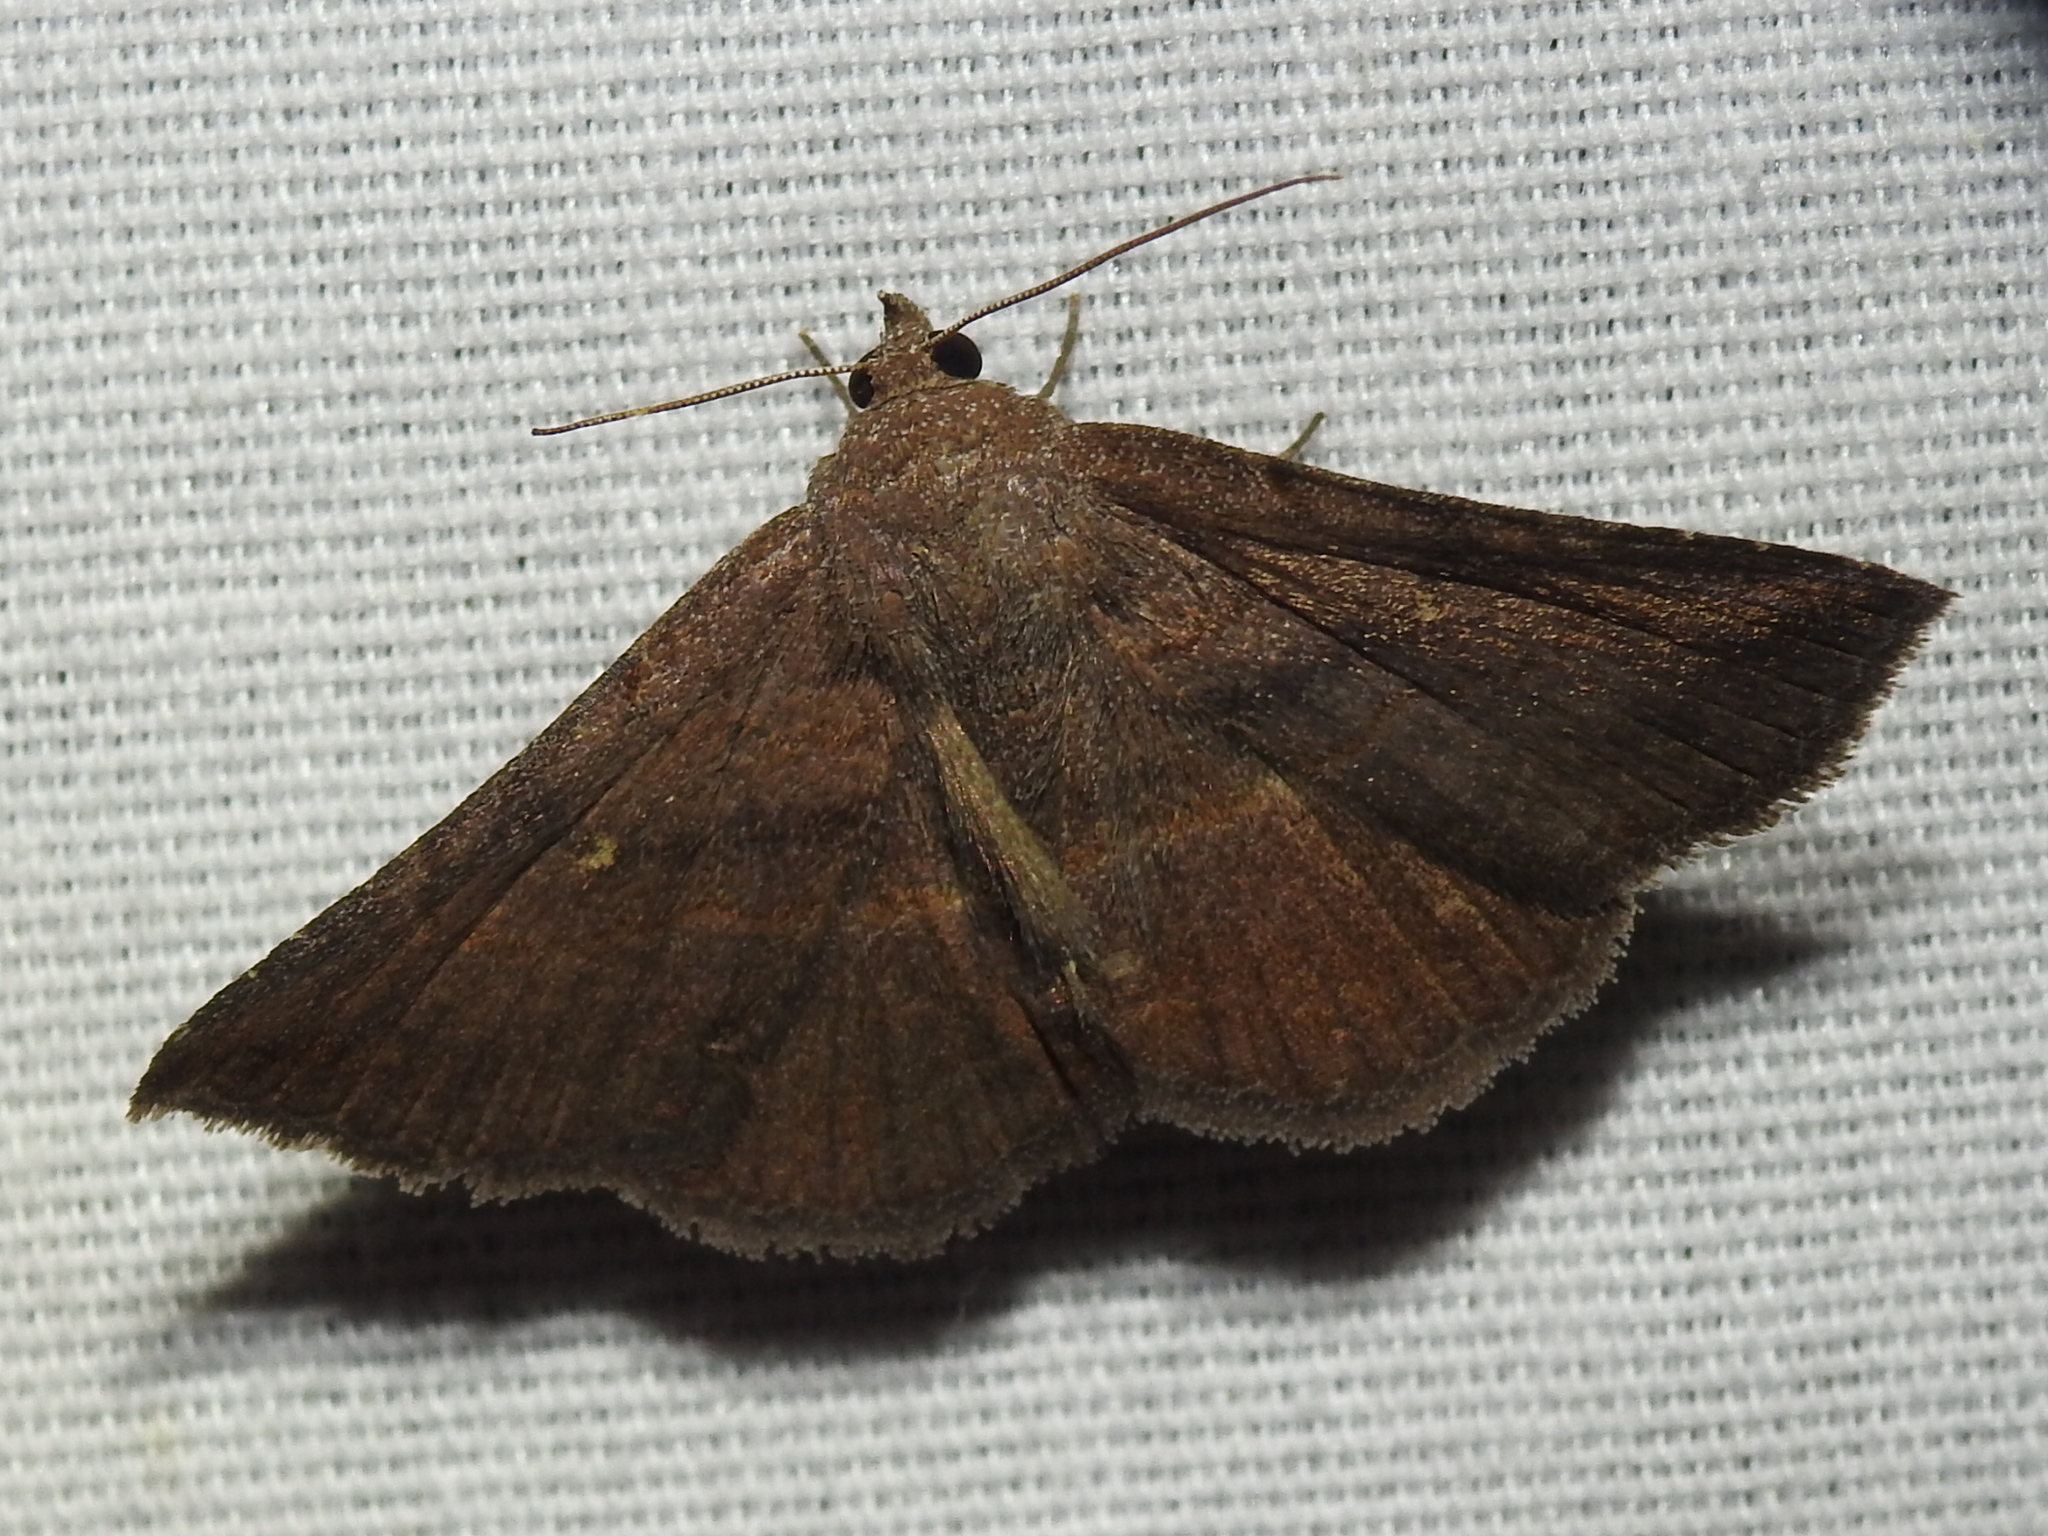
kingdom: Animalia
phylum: Arthropoda
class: Insecta
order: Lepidoptera
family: Erebidae
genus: Lesmone
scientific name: Lesmone detrahens
